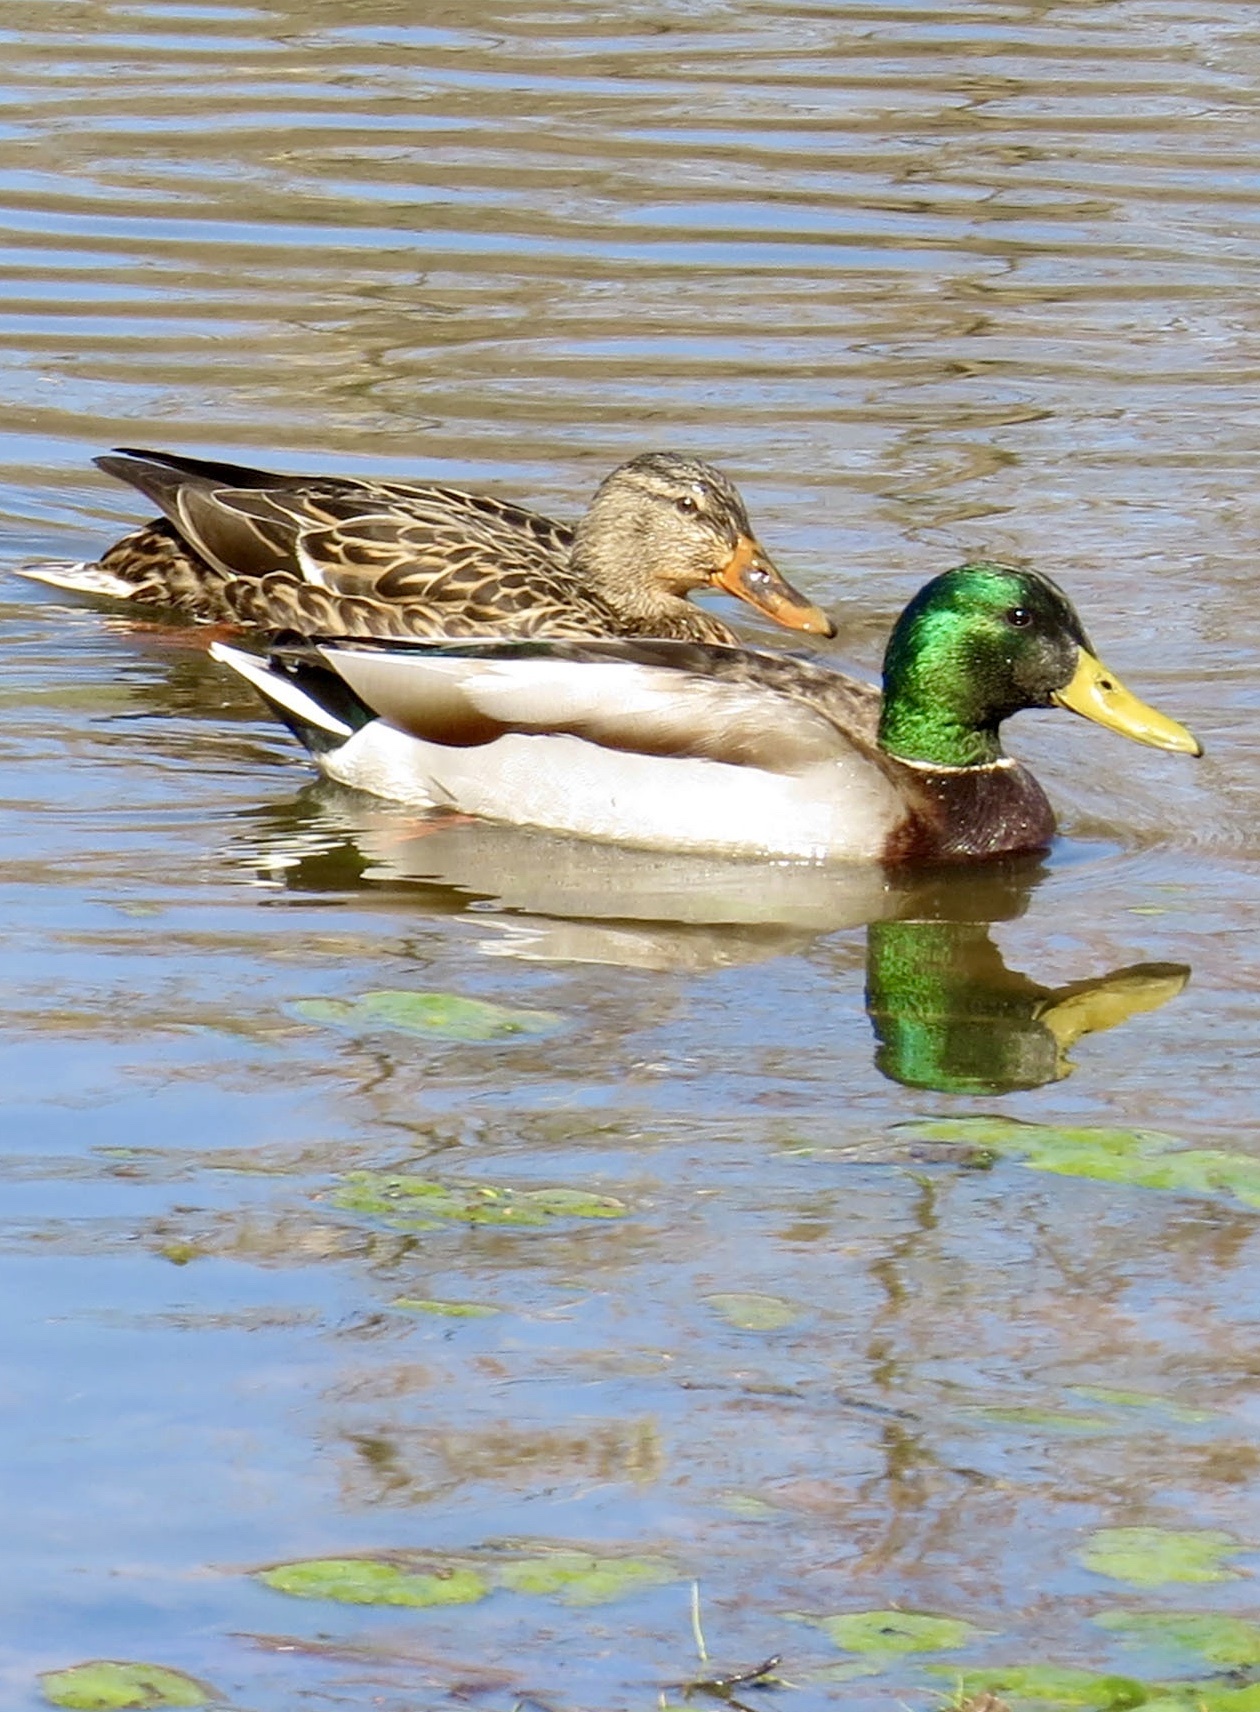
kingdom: Animalia
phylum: Chordata
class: Aves
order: Anseriformes
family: Anatidae
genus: Anas
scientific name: Anas platyrhynchos
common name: Mallard
